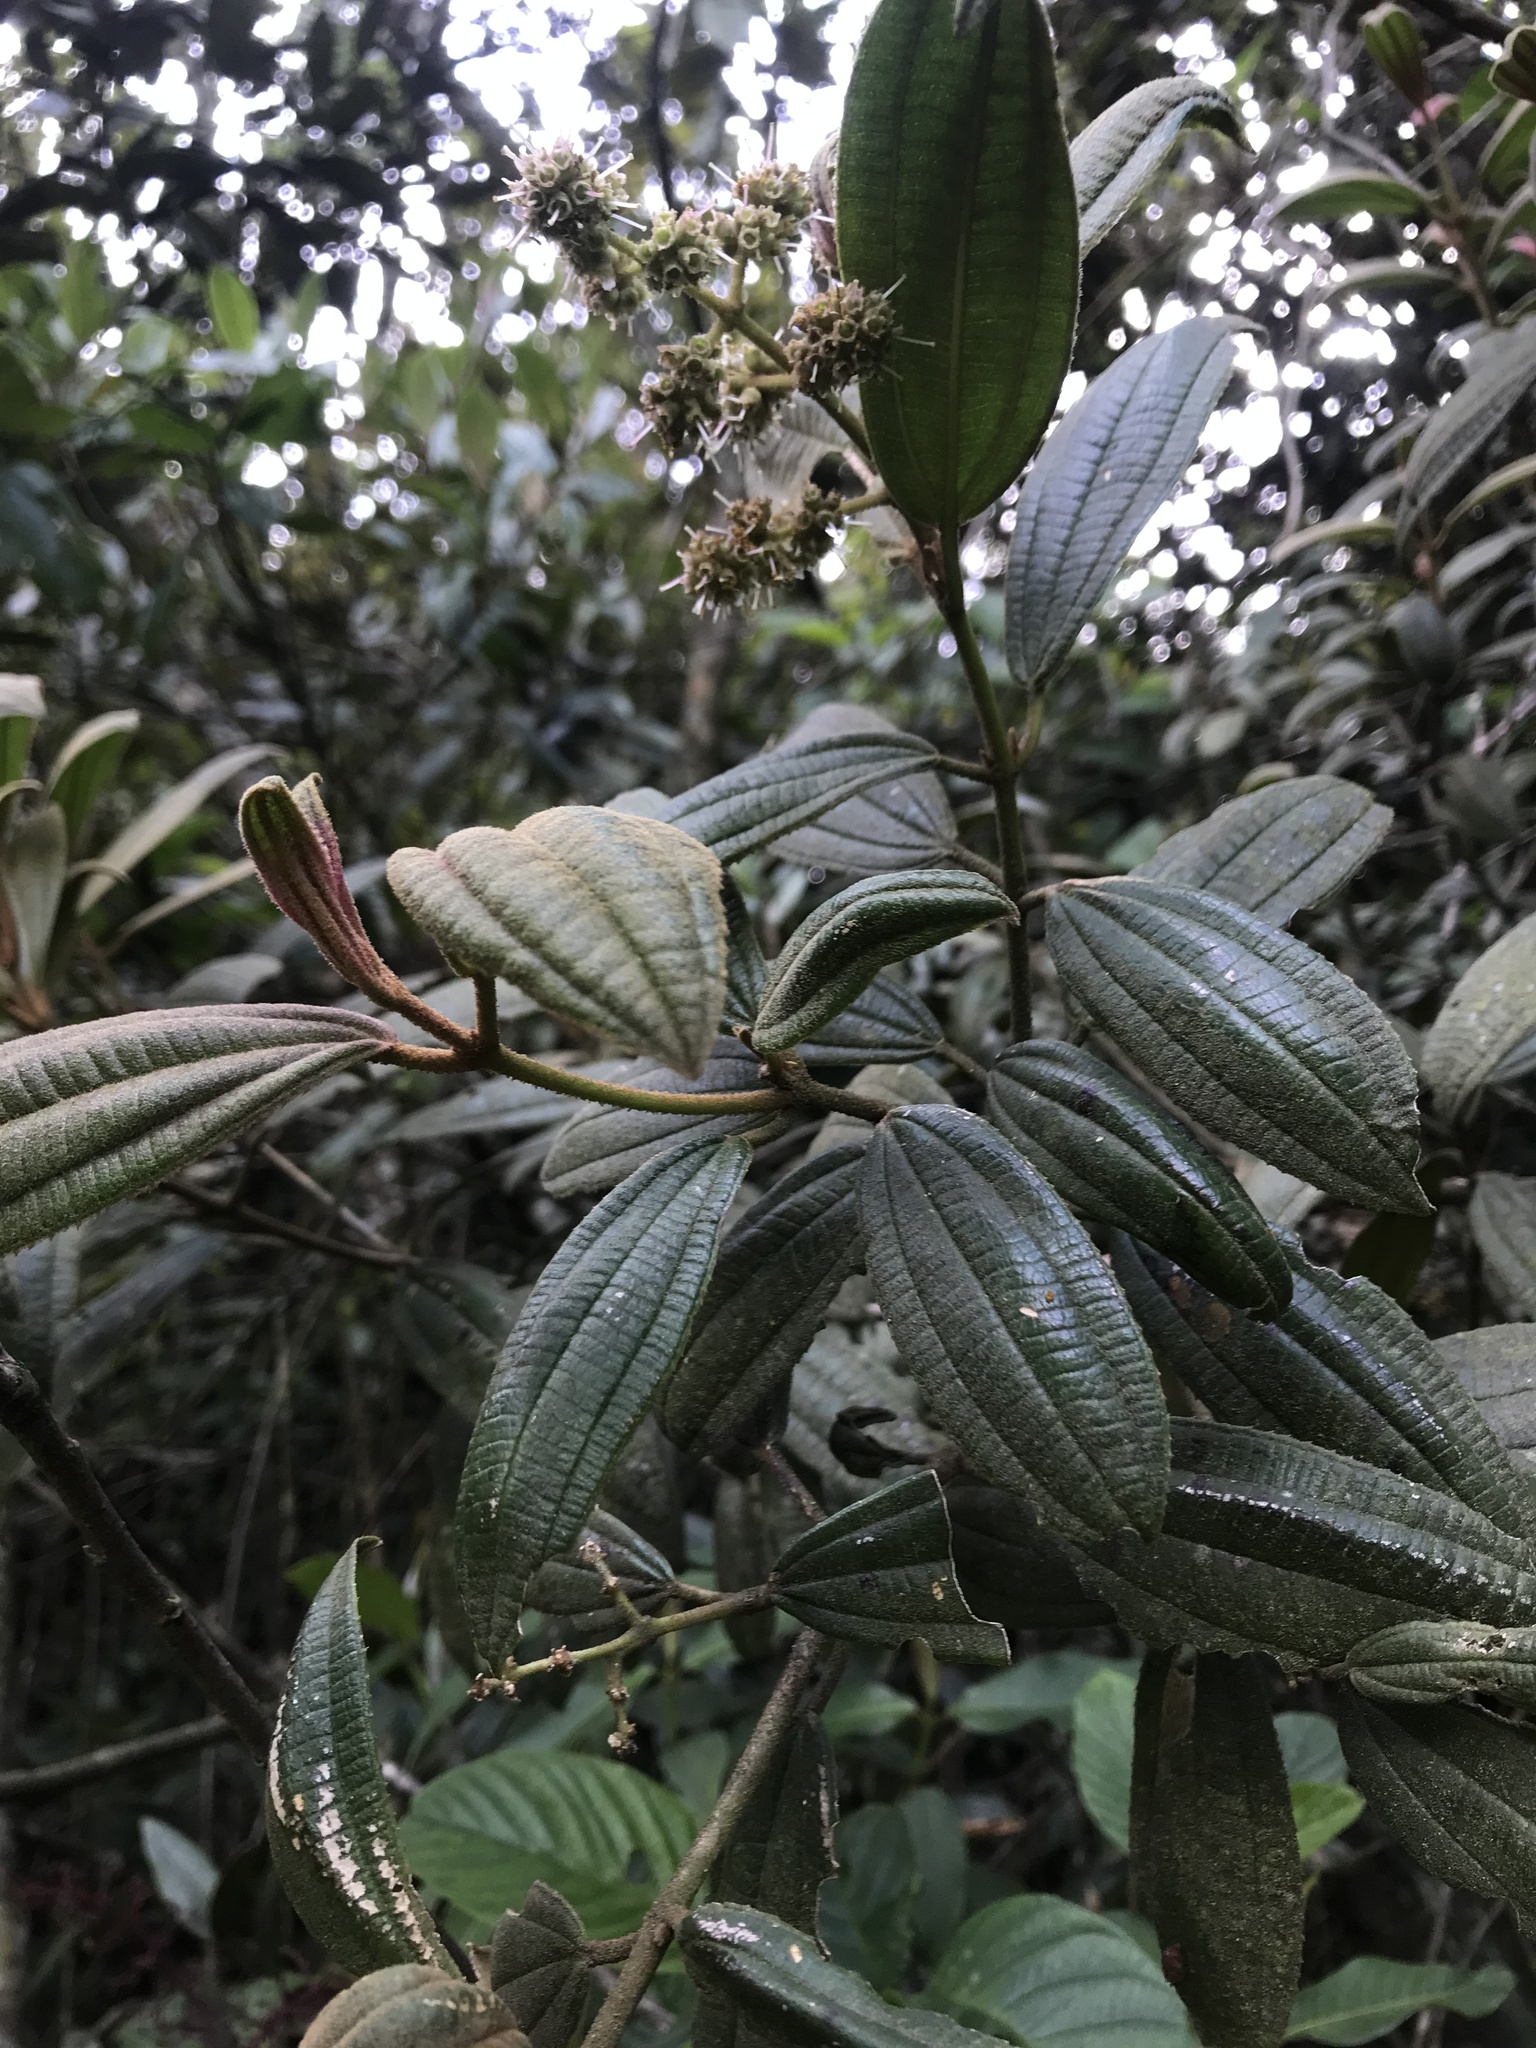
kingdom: Plantae
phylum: Tracheophyta
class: Magnoliopsida
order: Myrtales
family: Melastomataceae
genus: Miconia
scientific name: Miconia cataractae
